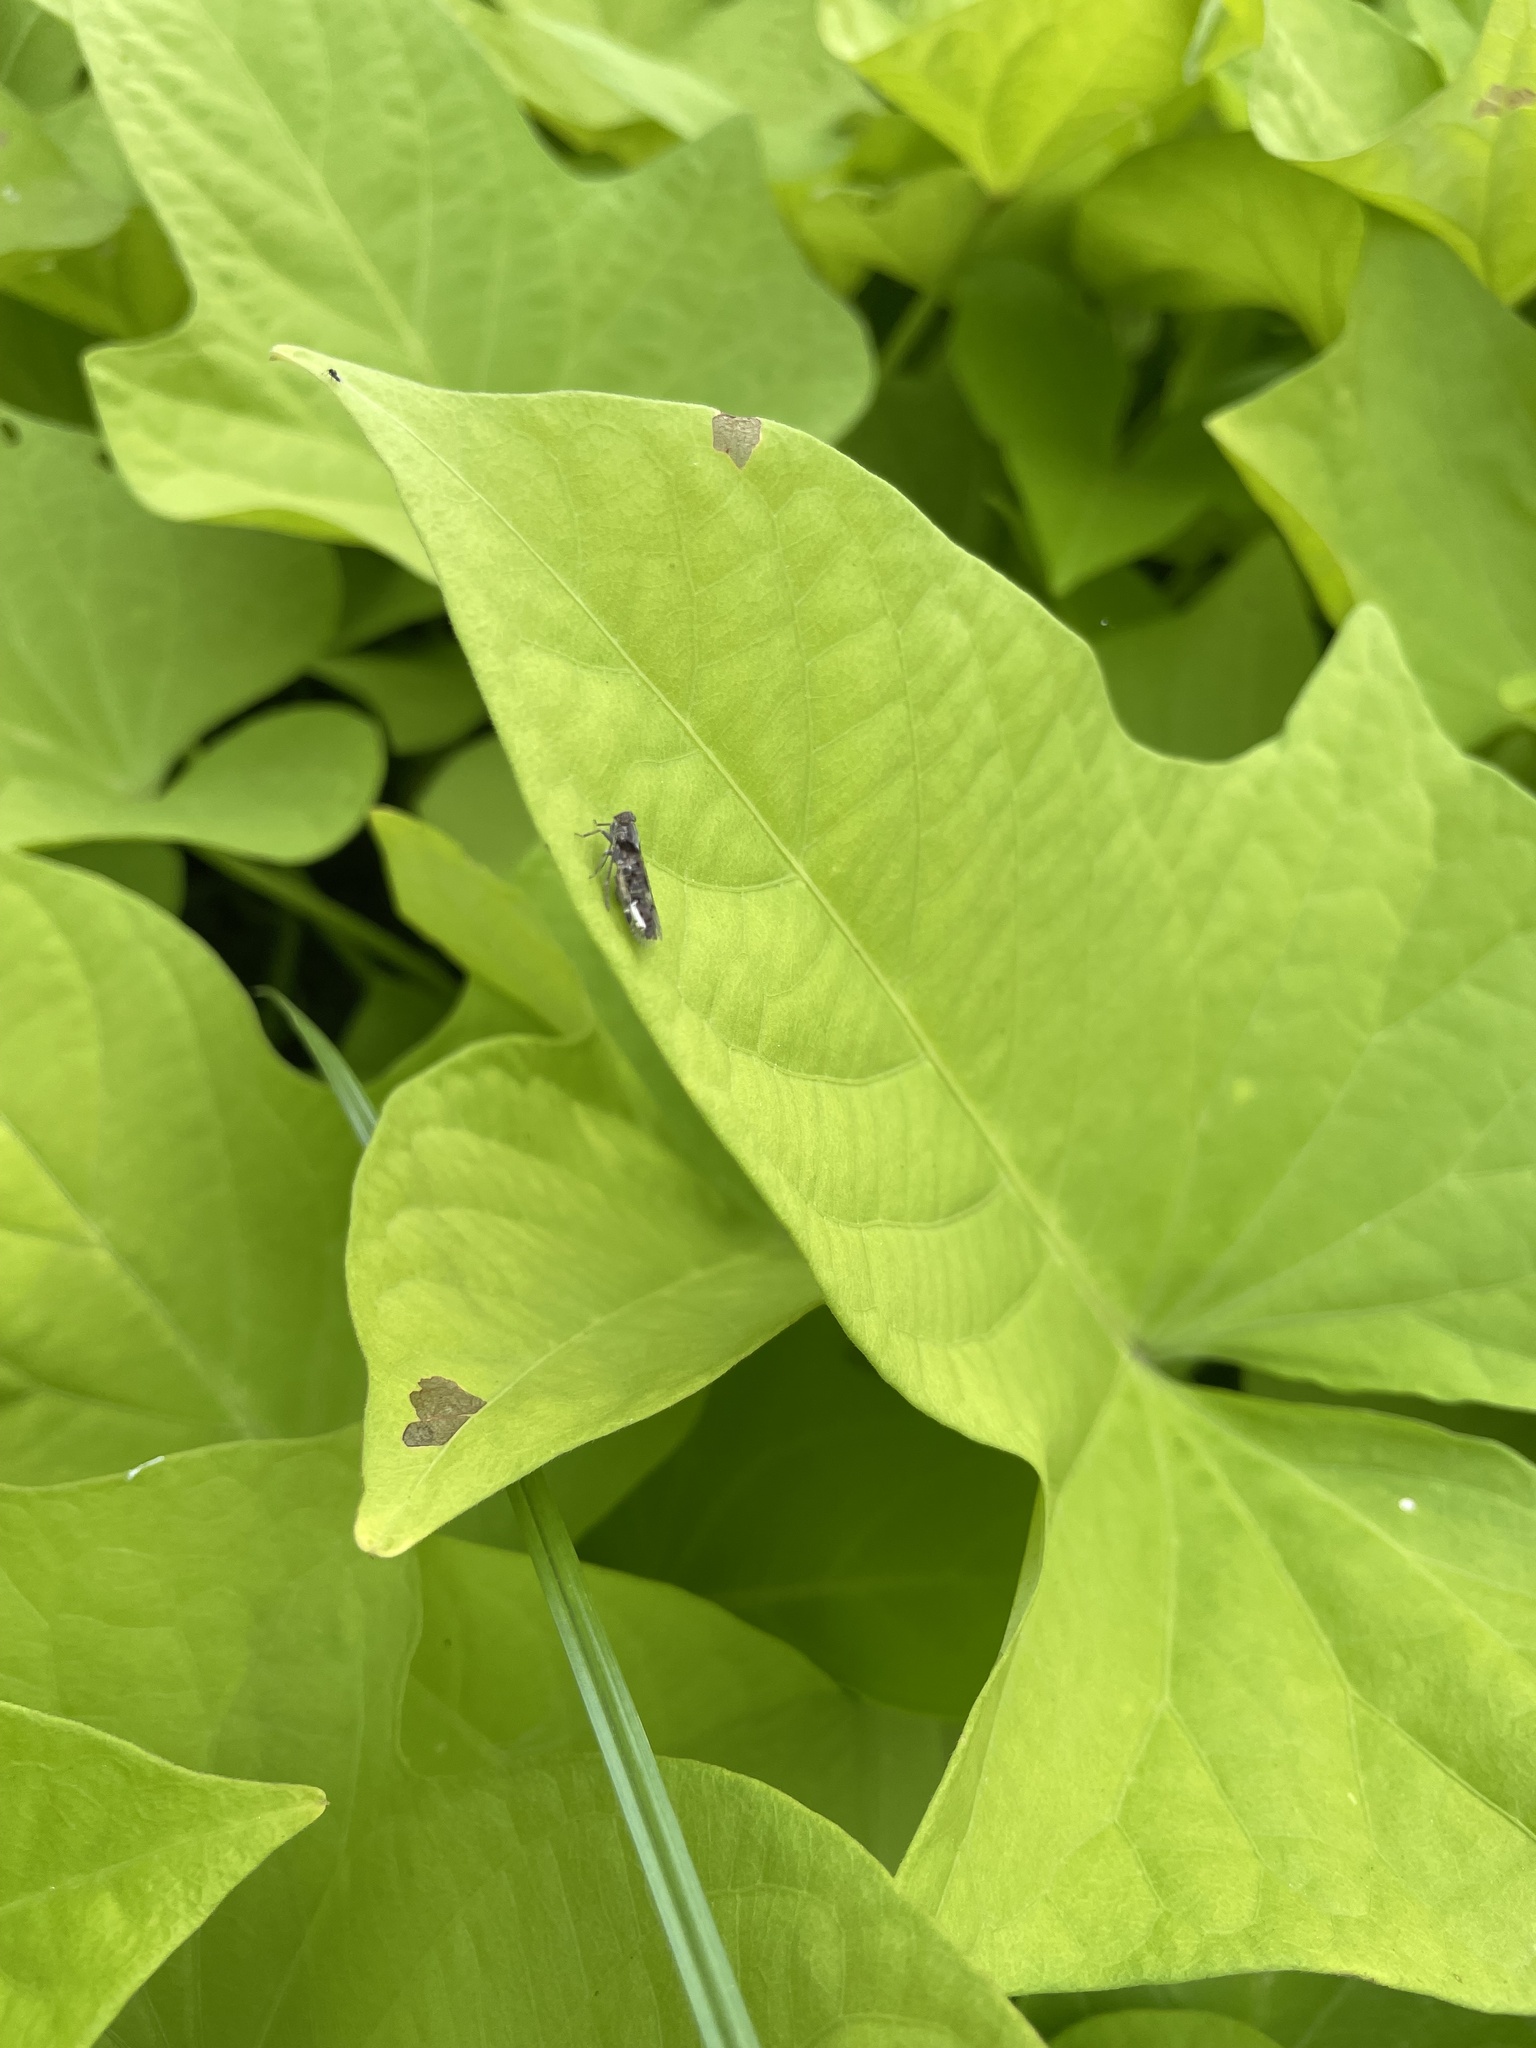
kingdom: Animalia
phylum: Arthropoda
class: Insecta
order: Hemiptera
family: Cixiidae
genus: Melanoliarus
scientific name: Melanoliarus aridus
